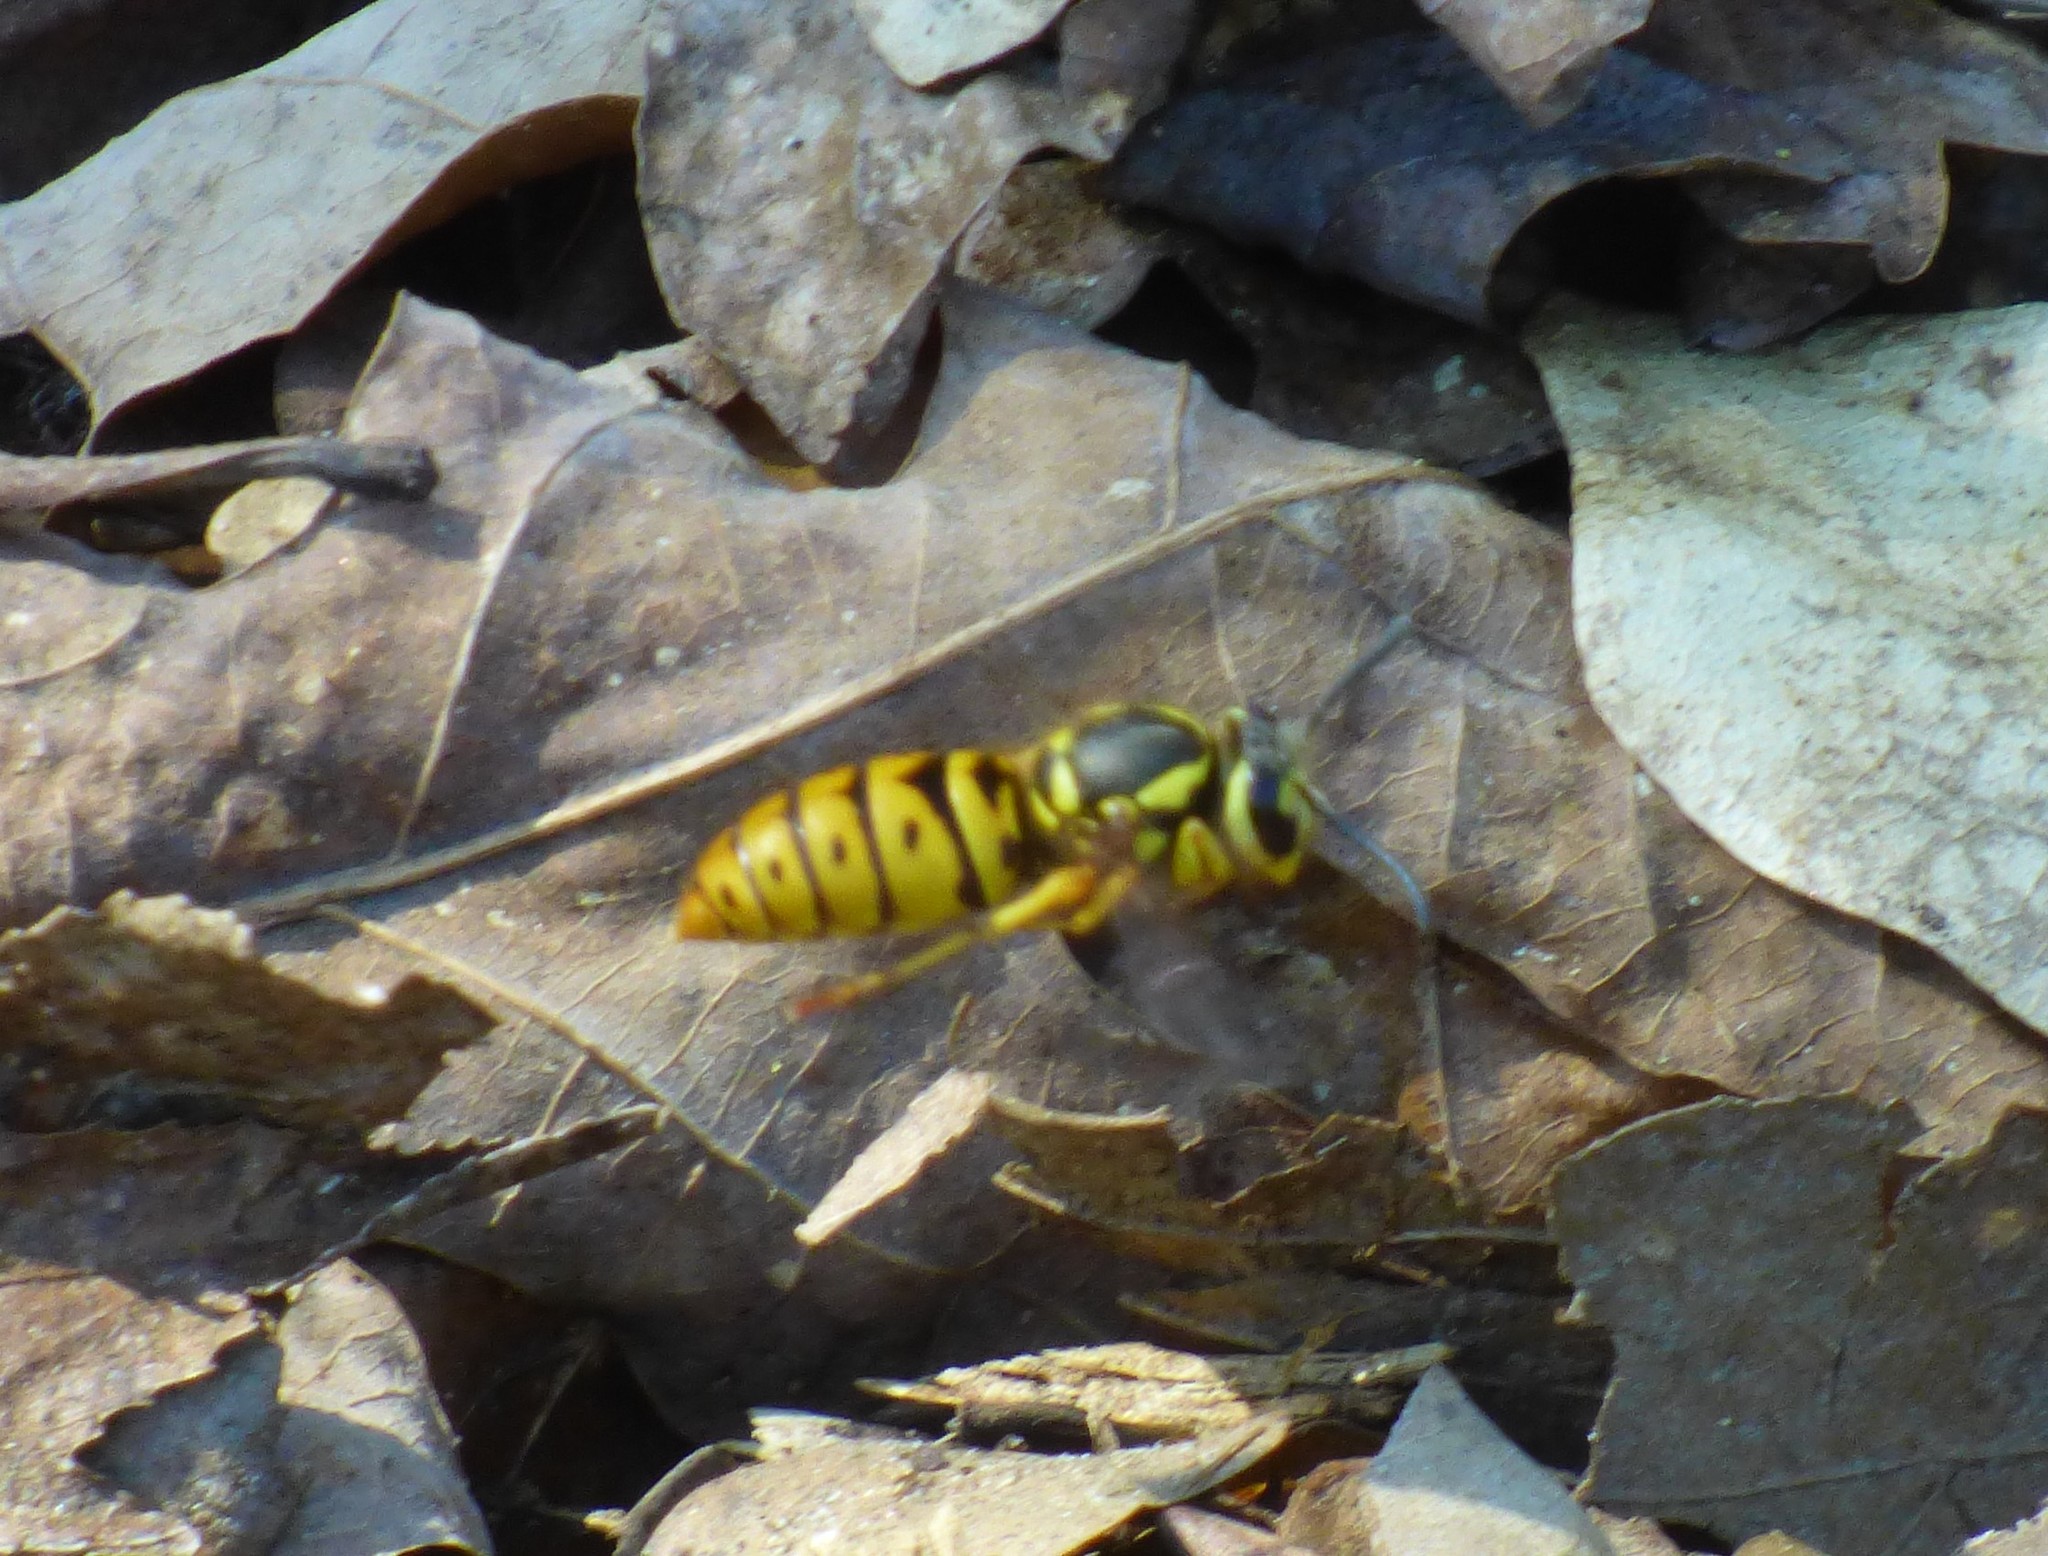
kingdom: Animalia
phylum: Arthropoda
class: Insecta
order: Hymenoptera
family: Vespidae
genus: Vespula
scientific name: Vespula maculifrons
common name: Eastern yellowjacket
